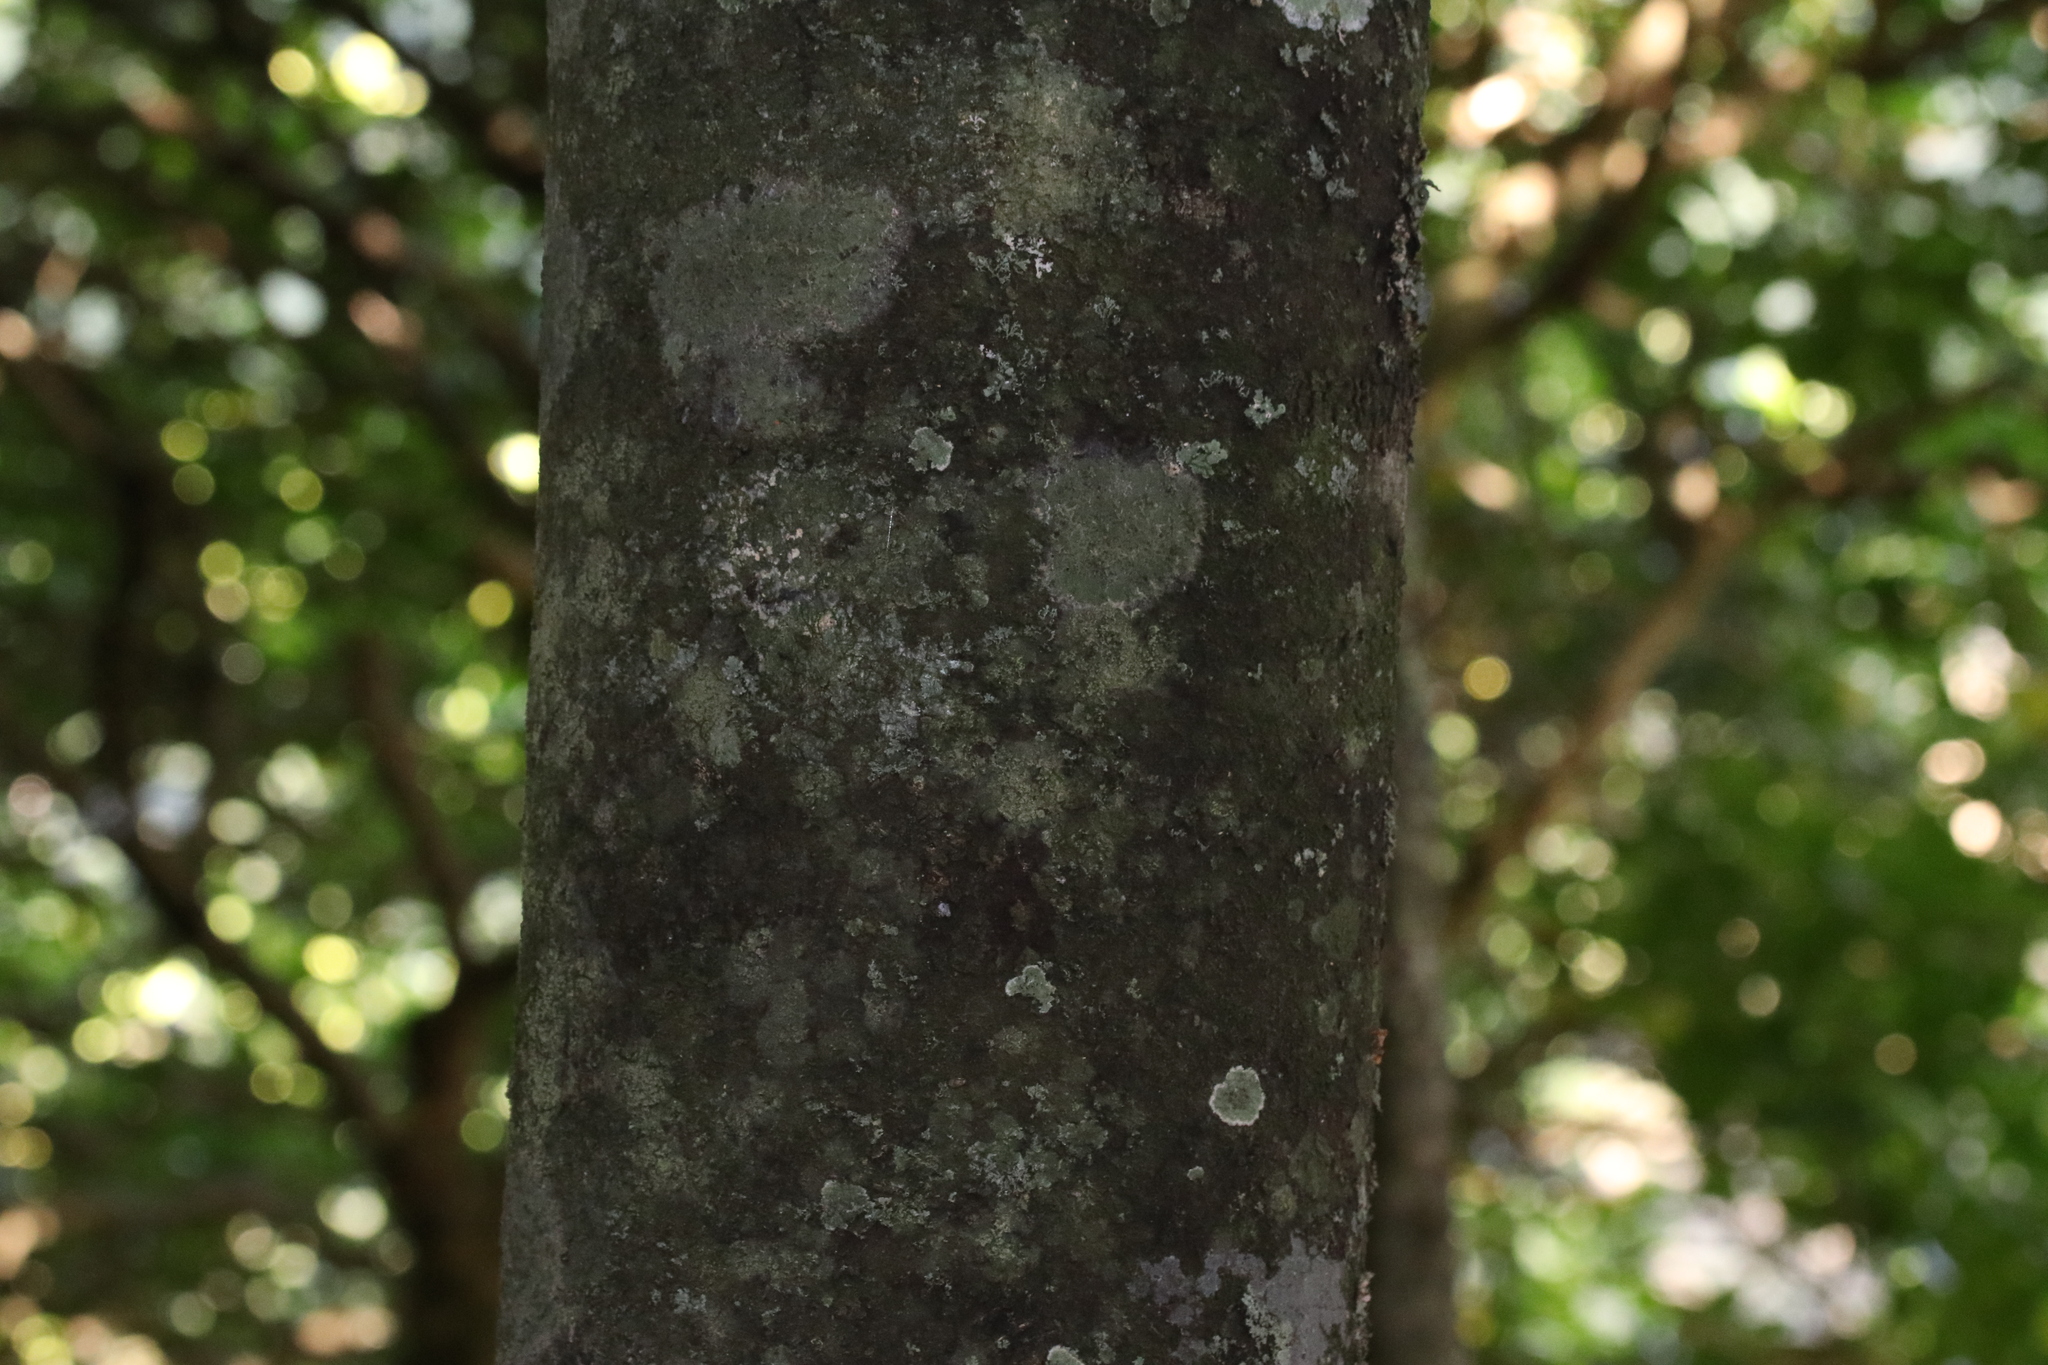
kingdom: Plantae
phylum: Tracheophyta
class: Magnoliopsida
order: Laurales
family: Lauraceae
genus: Beilschmiedia
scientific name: Beilschmiedia tawa
